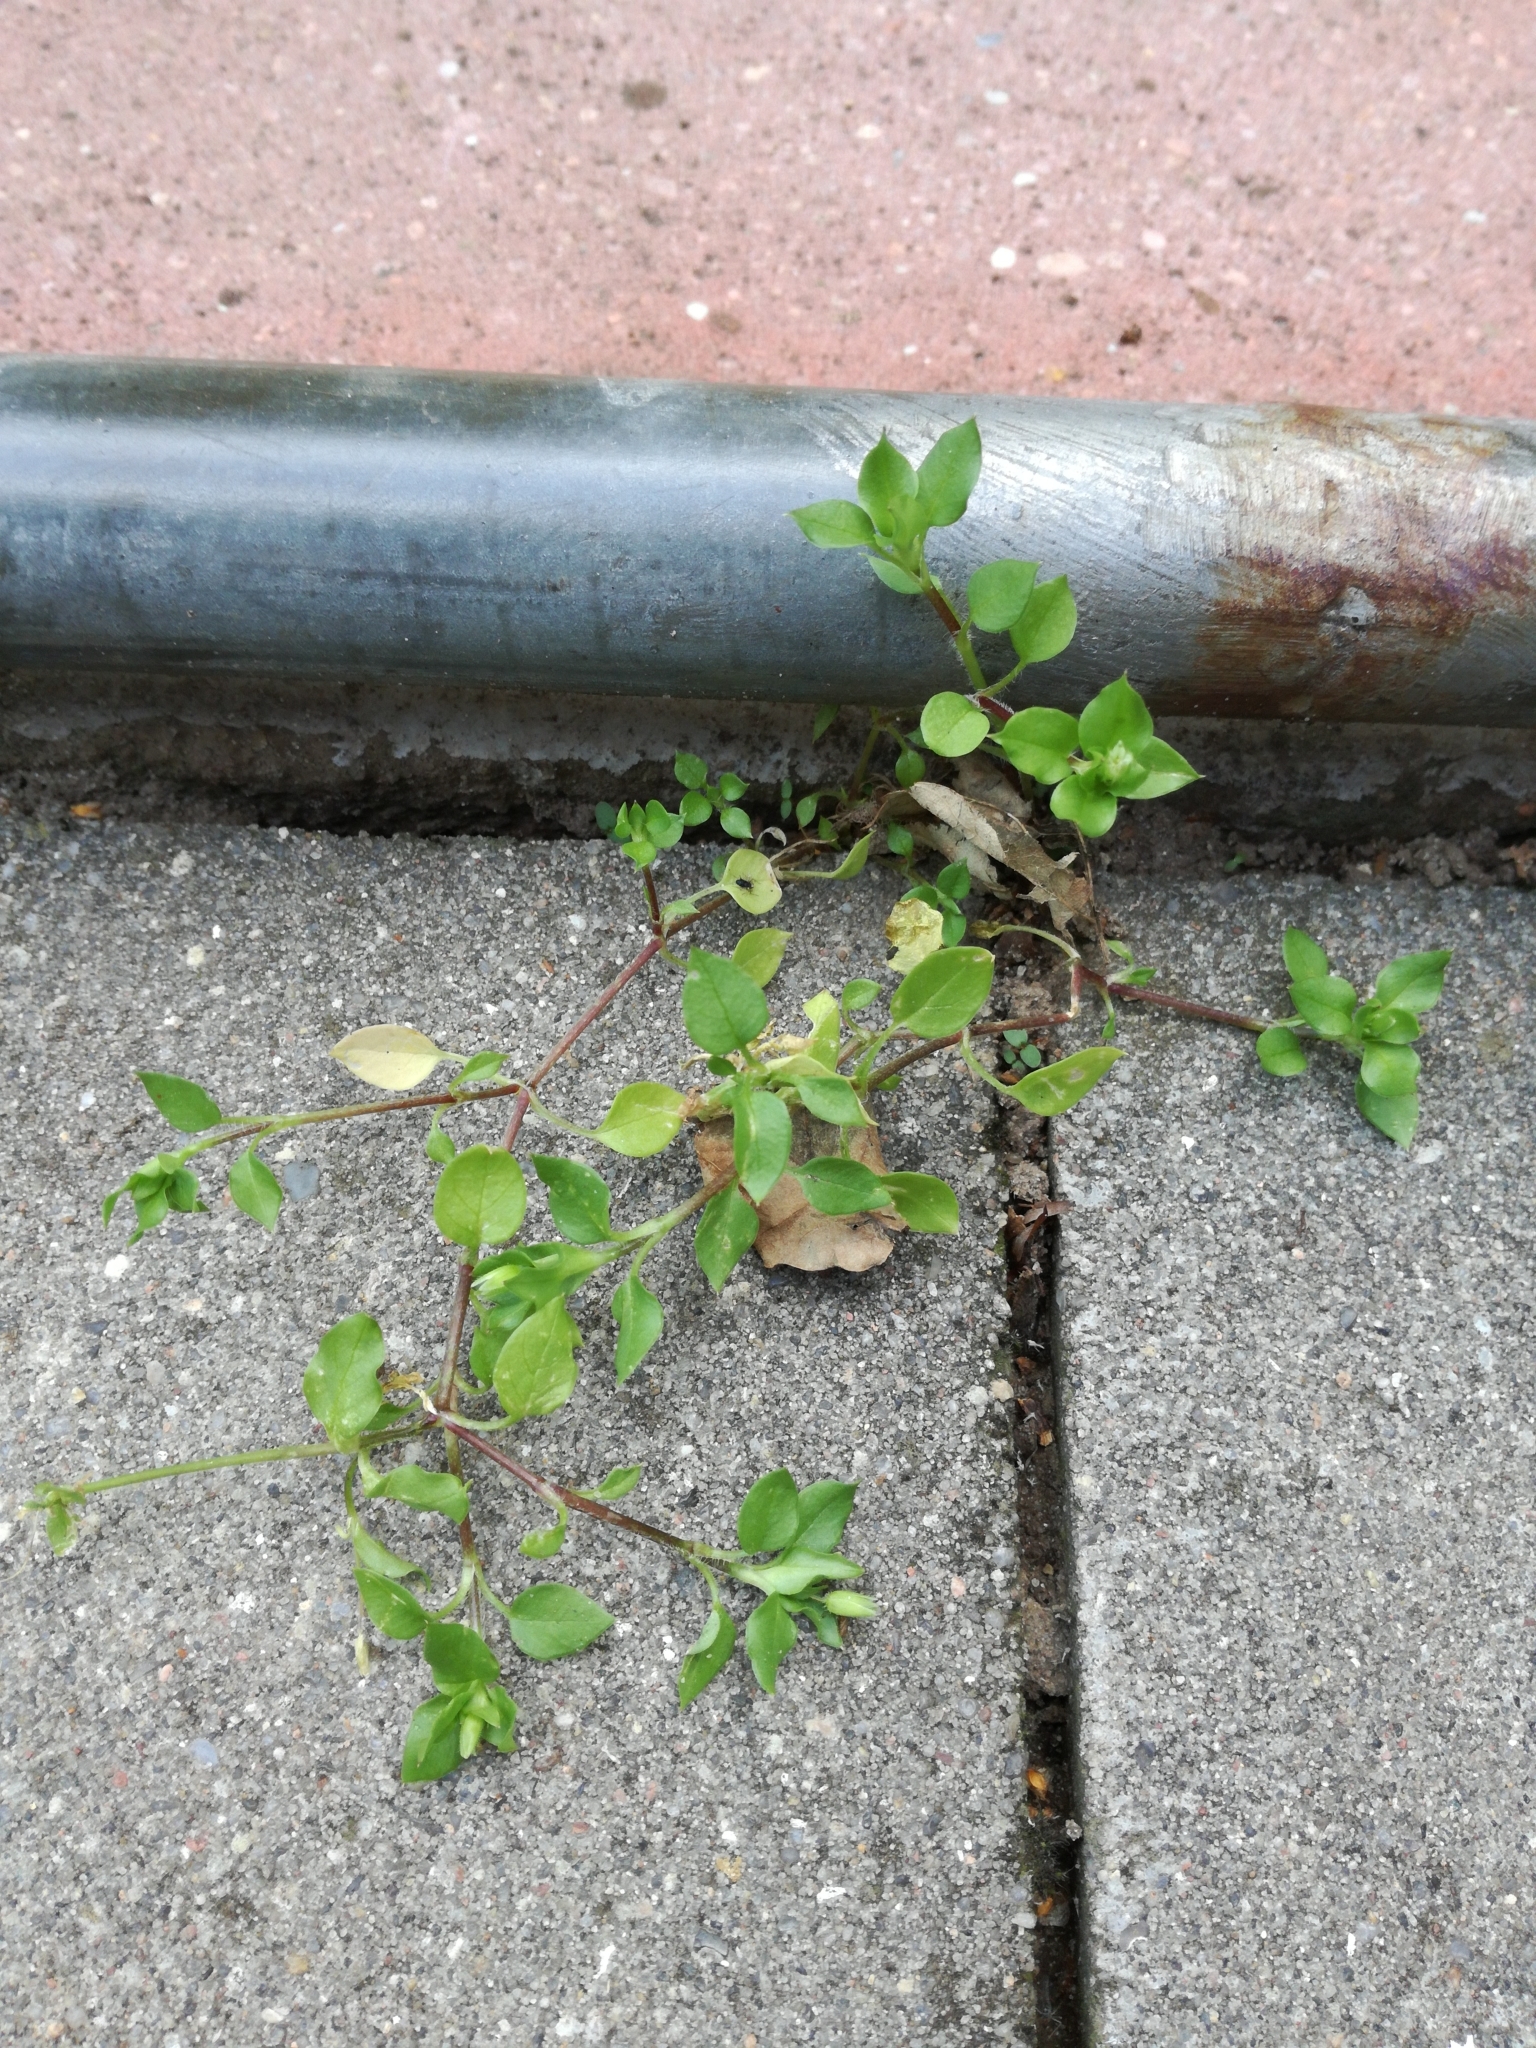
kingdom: Plantae
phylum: Tracheophyta
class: Magnoliopsida
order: Caryophyllales
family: Caryophyllaceae
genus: Stellaria
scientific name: Stellaria media
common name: Common chickweed
